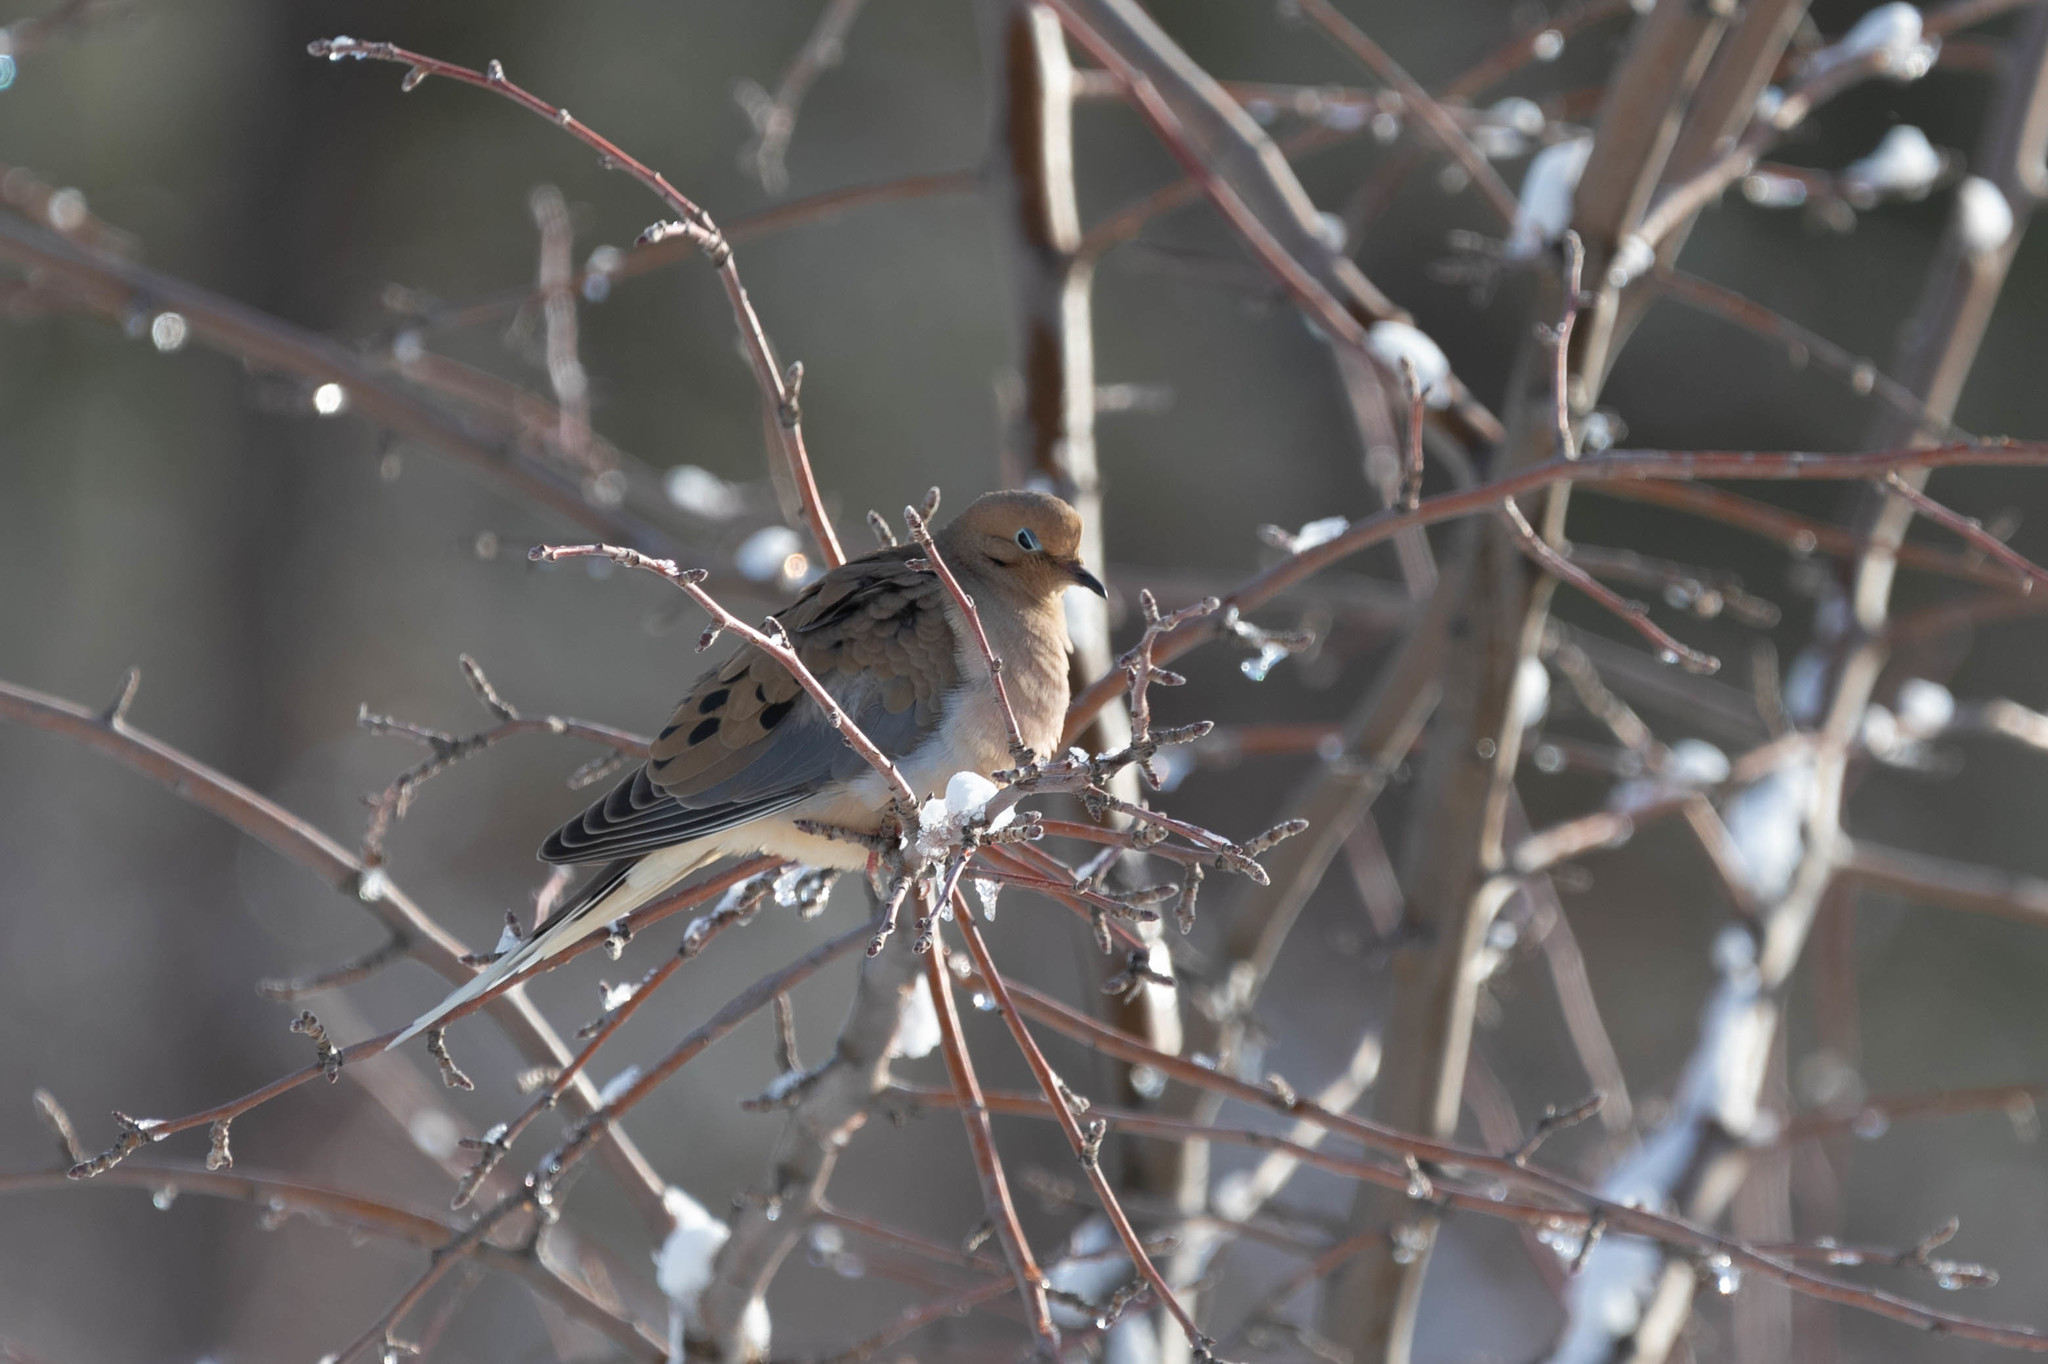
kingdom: Animalia
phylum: Chordata
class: Aves
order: Columbiformes
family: Columbidae
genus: Zenaida
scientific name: Zenaida macroura
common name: Mourning dove
